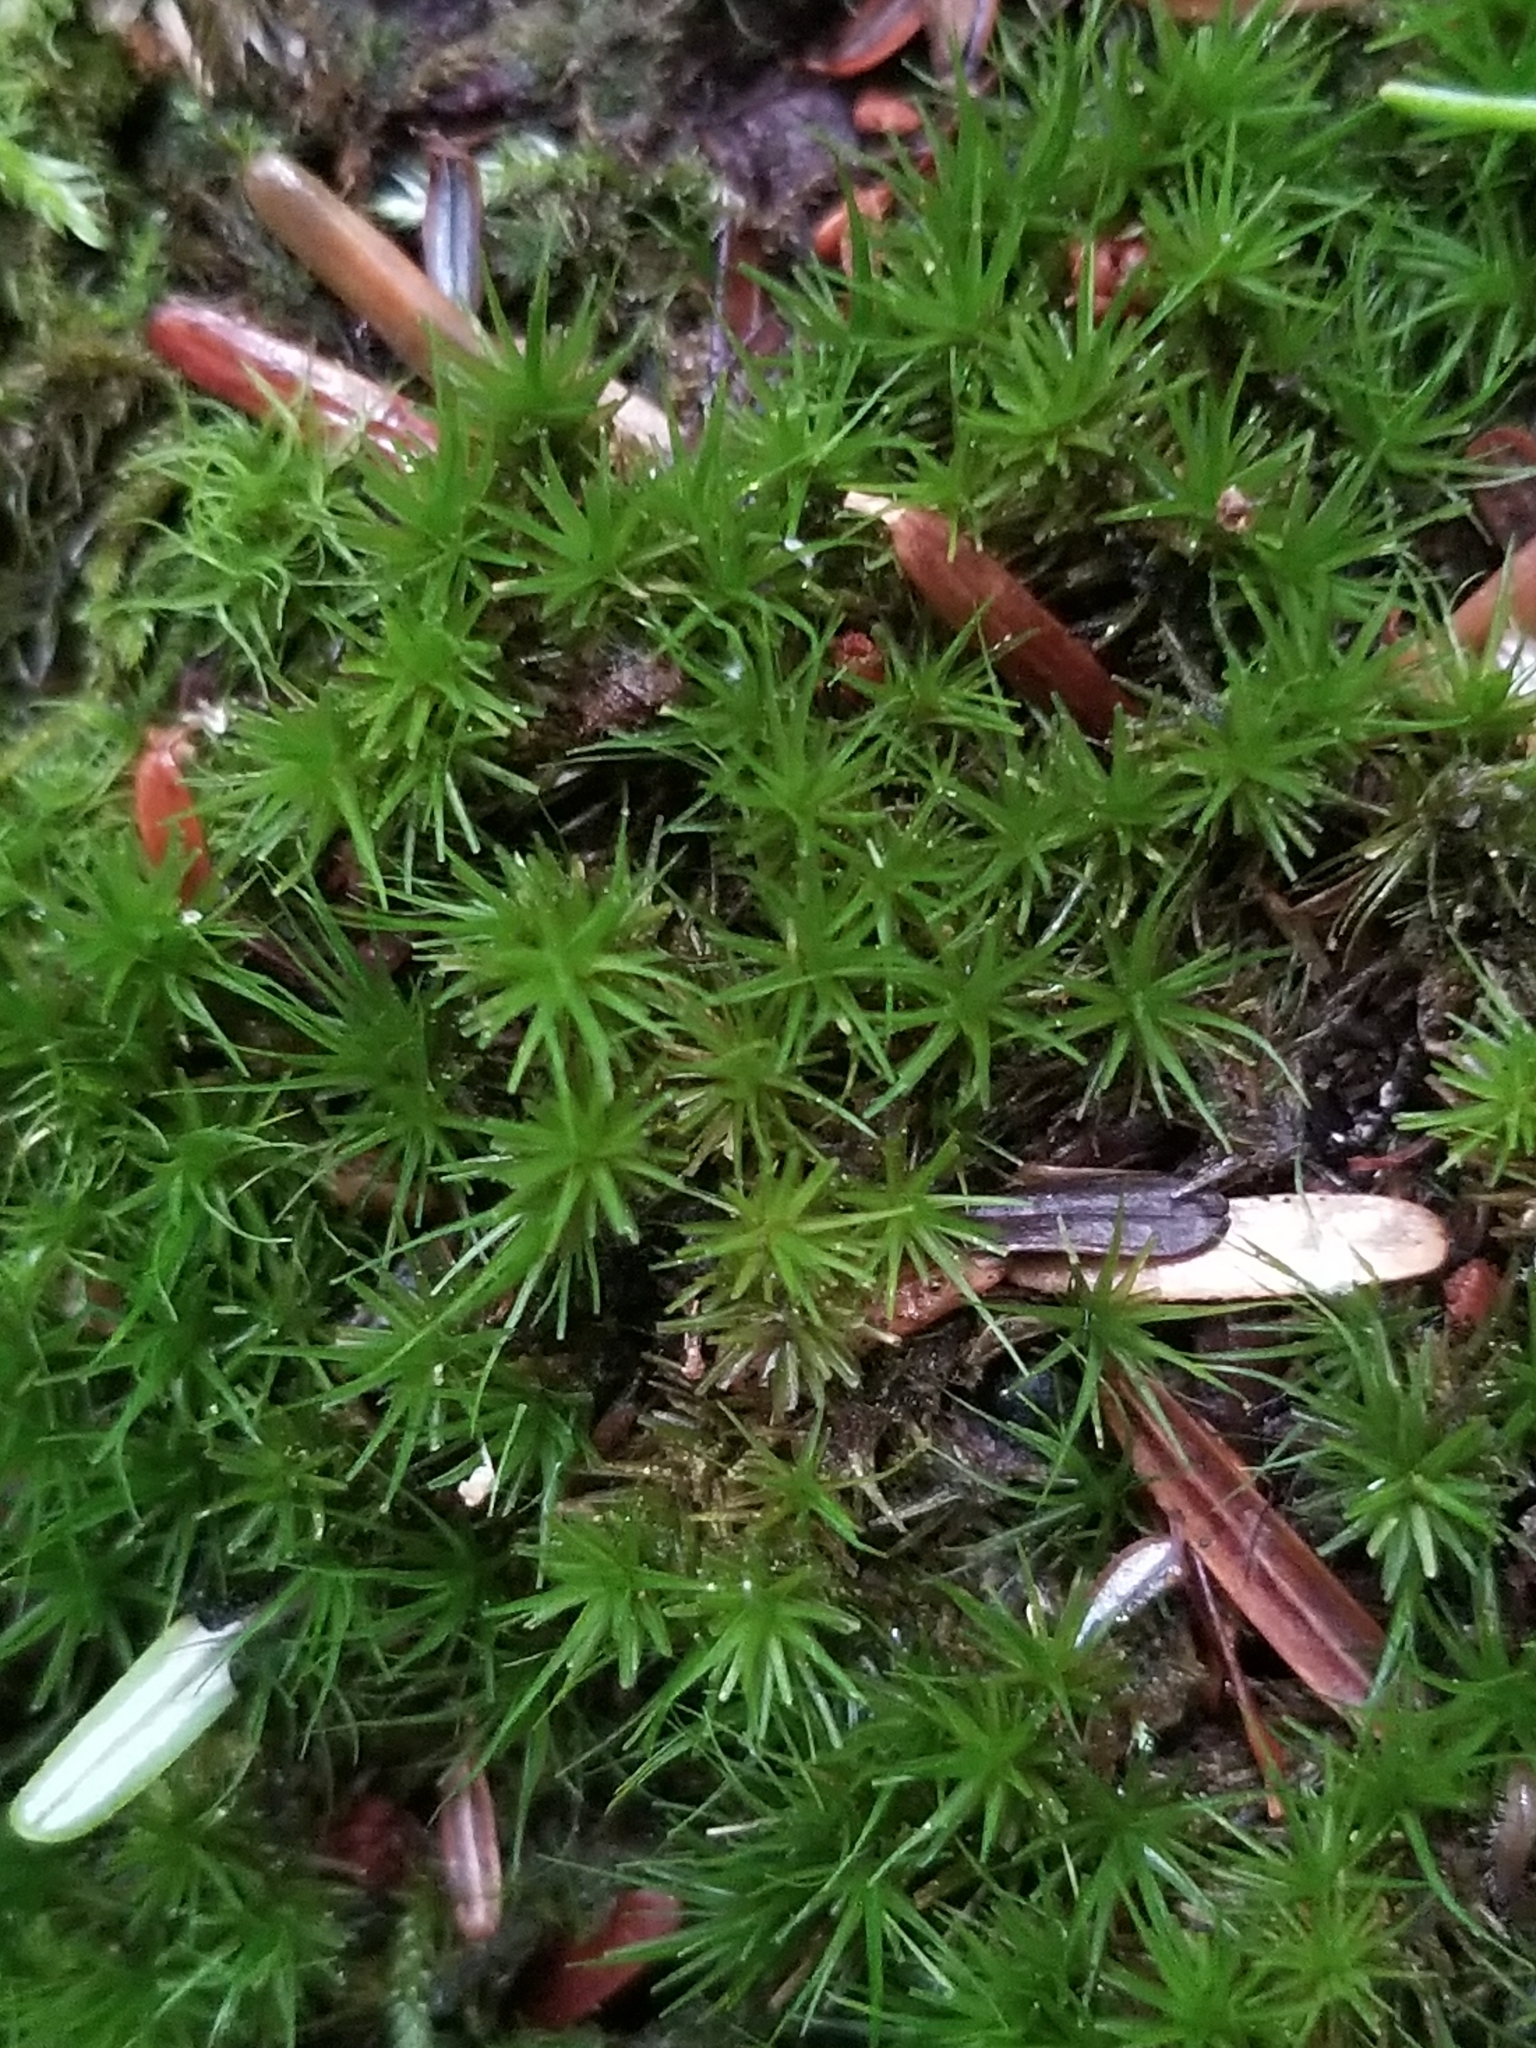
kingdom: Plantae
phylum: Bryophyta
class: Bryopsida
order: Dicranales
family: Dicranaceae
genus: Dicranum
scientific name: Dicranum viride
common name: Green broom moss
